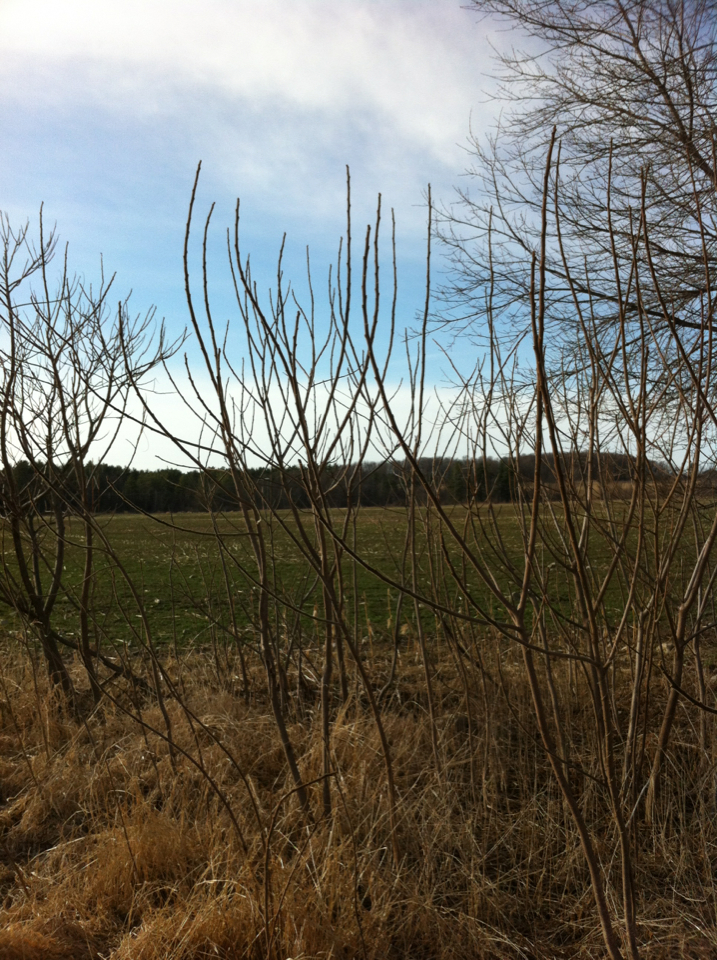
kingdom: Plantae
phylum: Tracheophyta
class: Magnoliopsida
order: Sapindales
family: Anacardiaceae
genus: Rhus
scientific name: Rhus typhina
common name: Staghorn sumac
